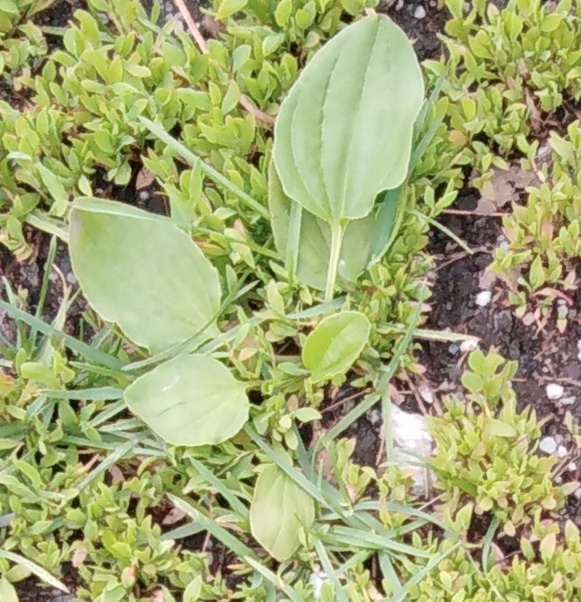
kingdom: Plantae
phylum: Tracheophyta
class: Magnoliopsida
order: Lamiales
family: Plantaginaceae
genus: Plantago
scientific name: Plantago major
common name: Common plantain
